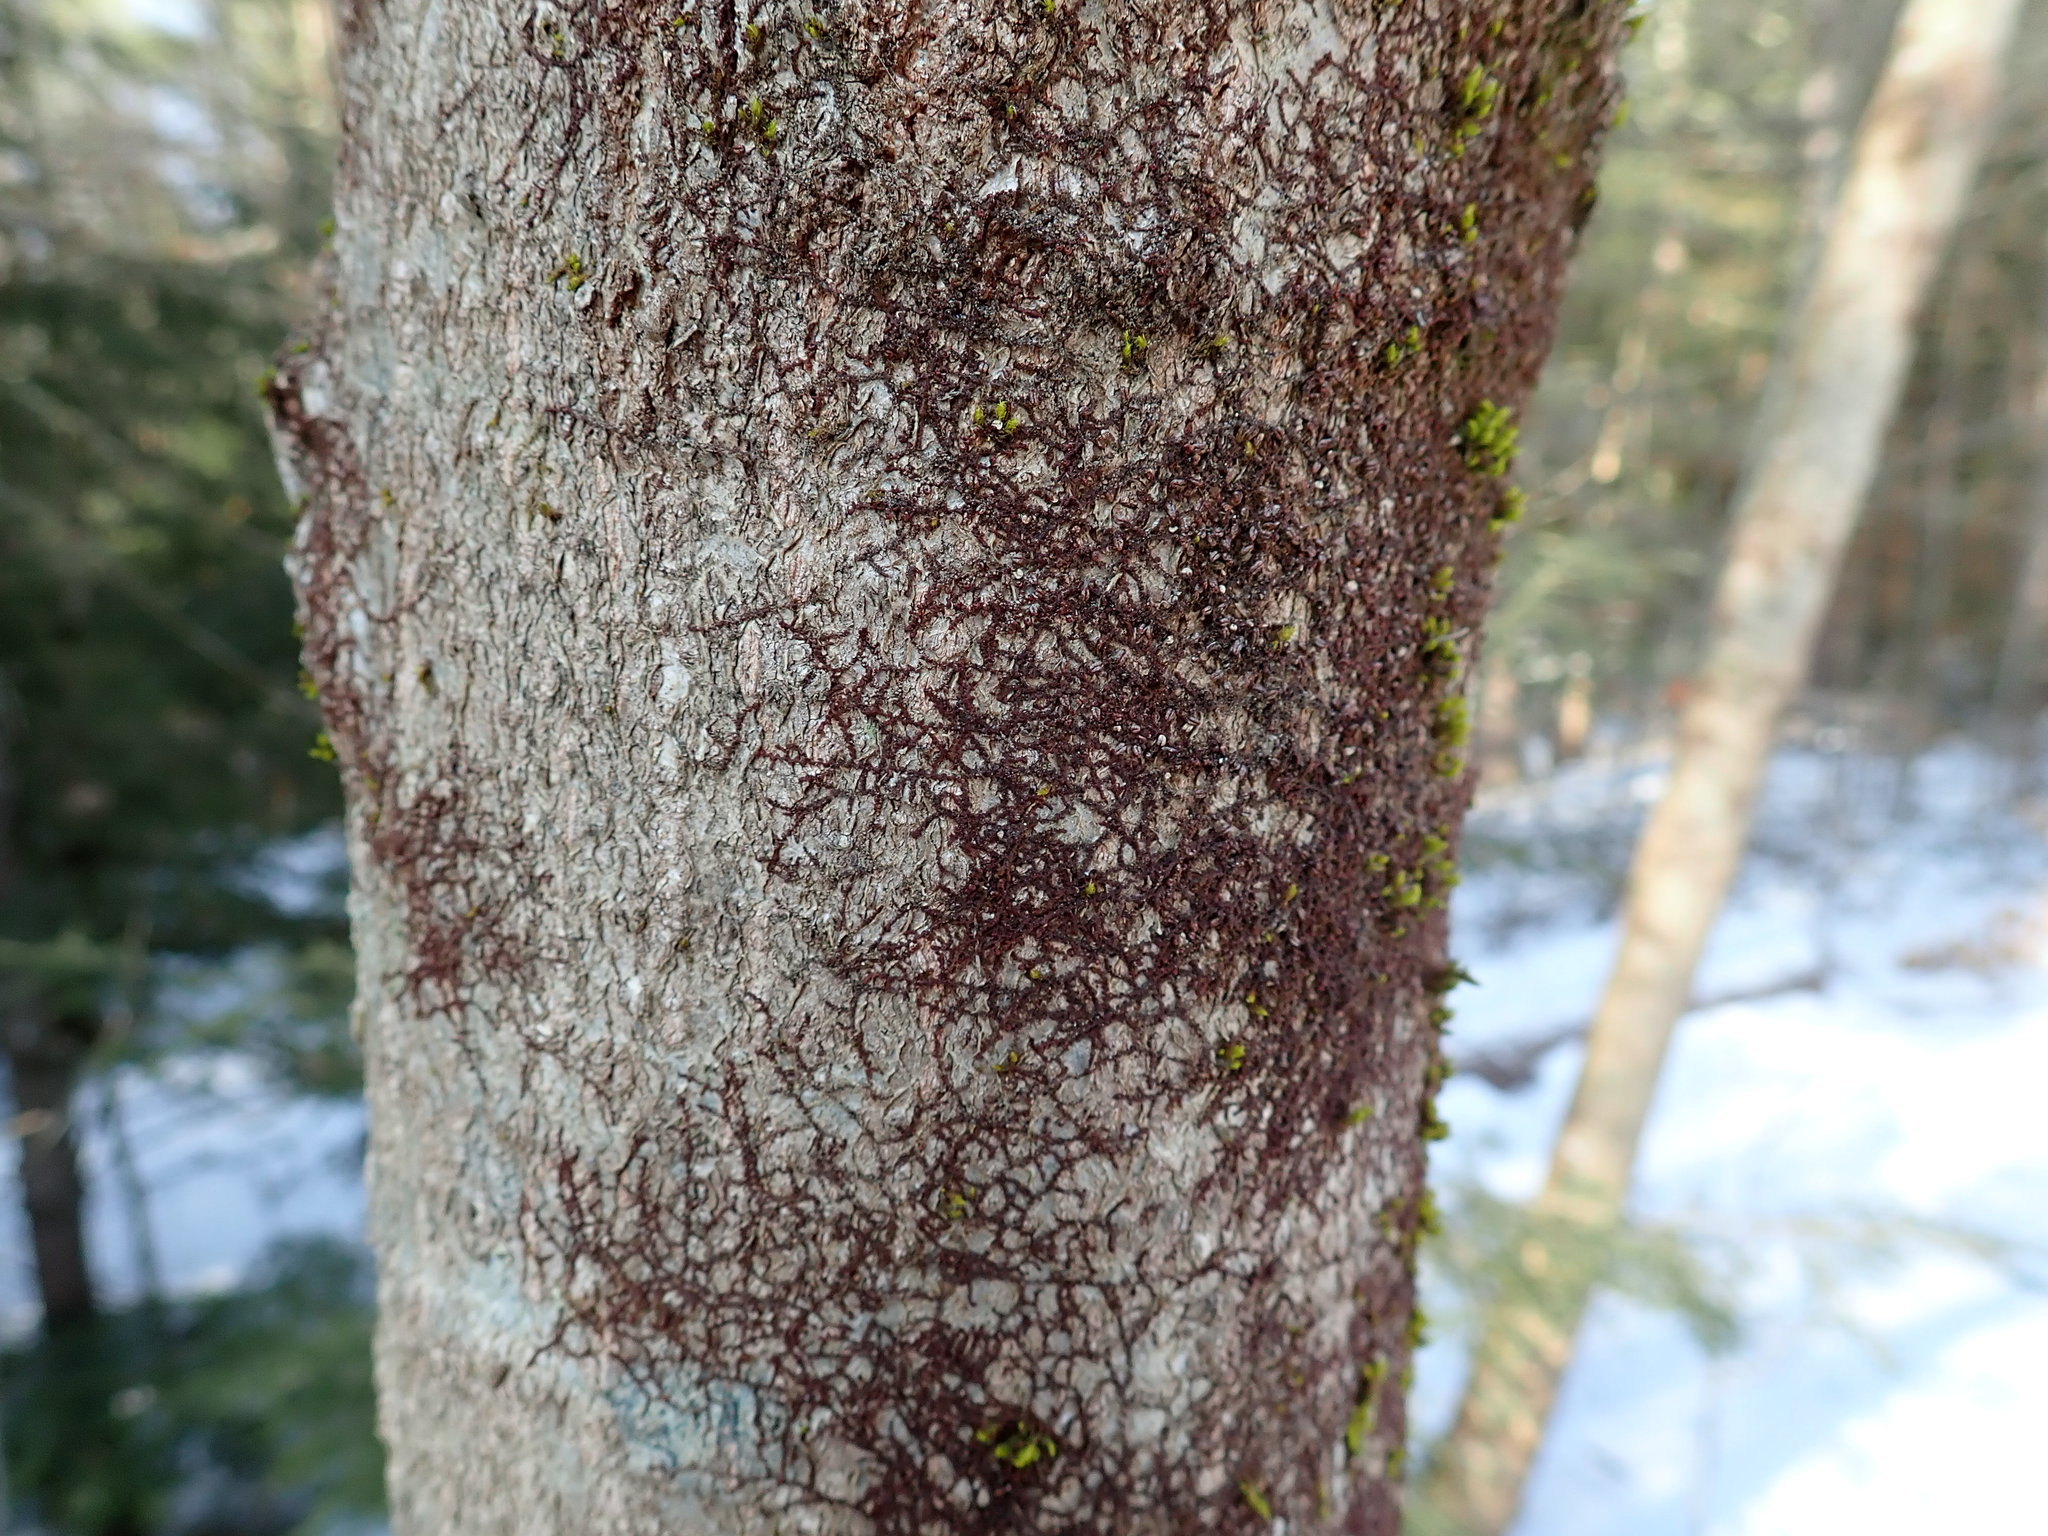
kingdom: Plantae
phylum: Marchantiophyta
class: Jungermanniopsida
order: Porellales
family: Frullaniaceae
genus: Frullania
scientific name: Frullania eboracensis
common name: New york scalewort
